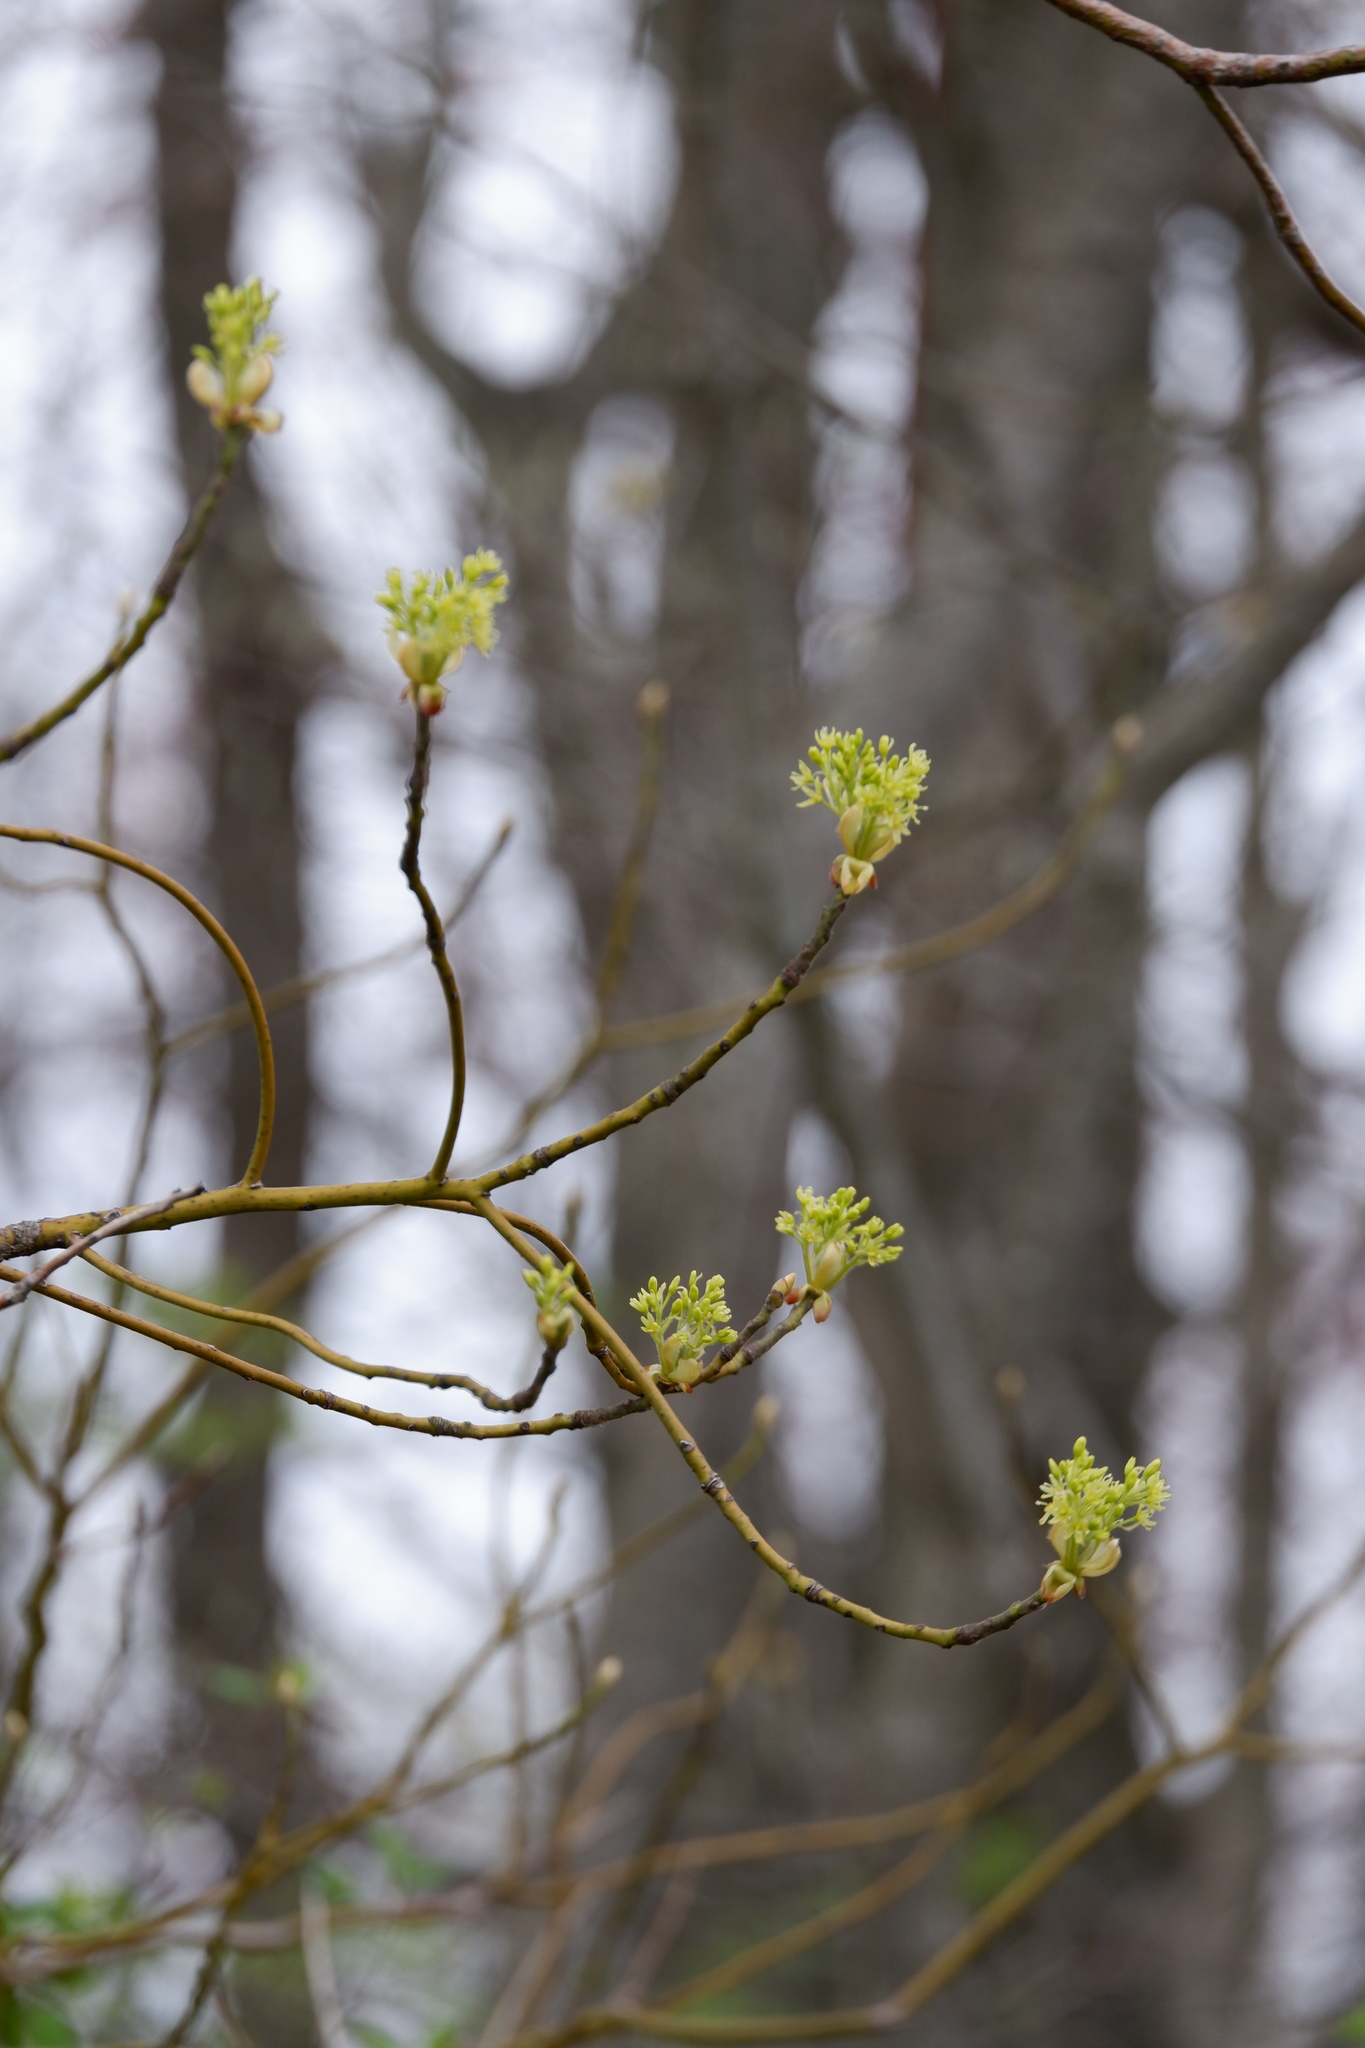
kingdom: Plantae
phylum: Tracheophyta
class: Magnoliopsida
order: Laurales
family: Lauraceae
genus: Sassafras
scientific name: Sassafras albidum
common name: Sassafras
